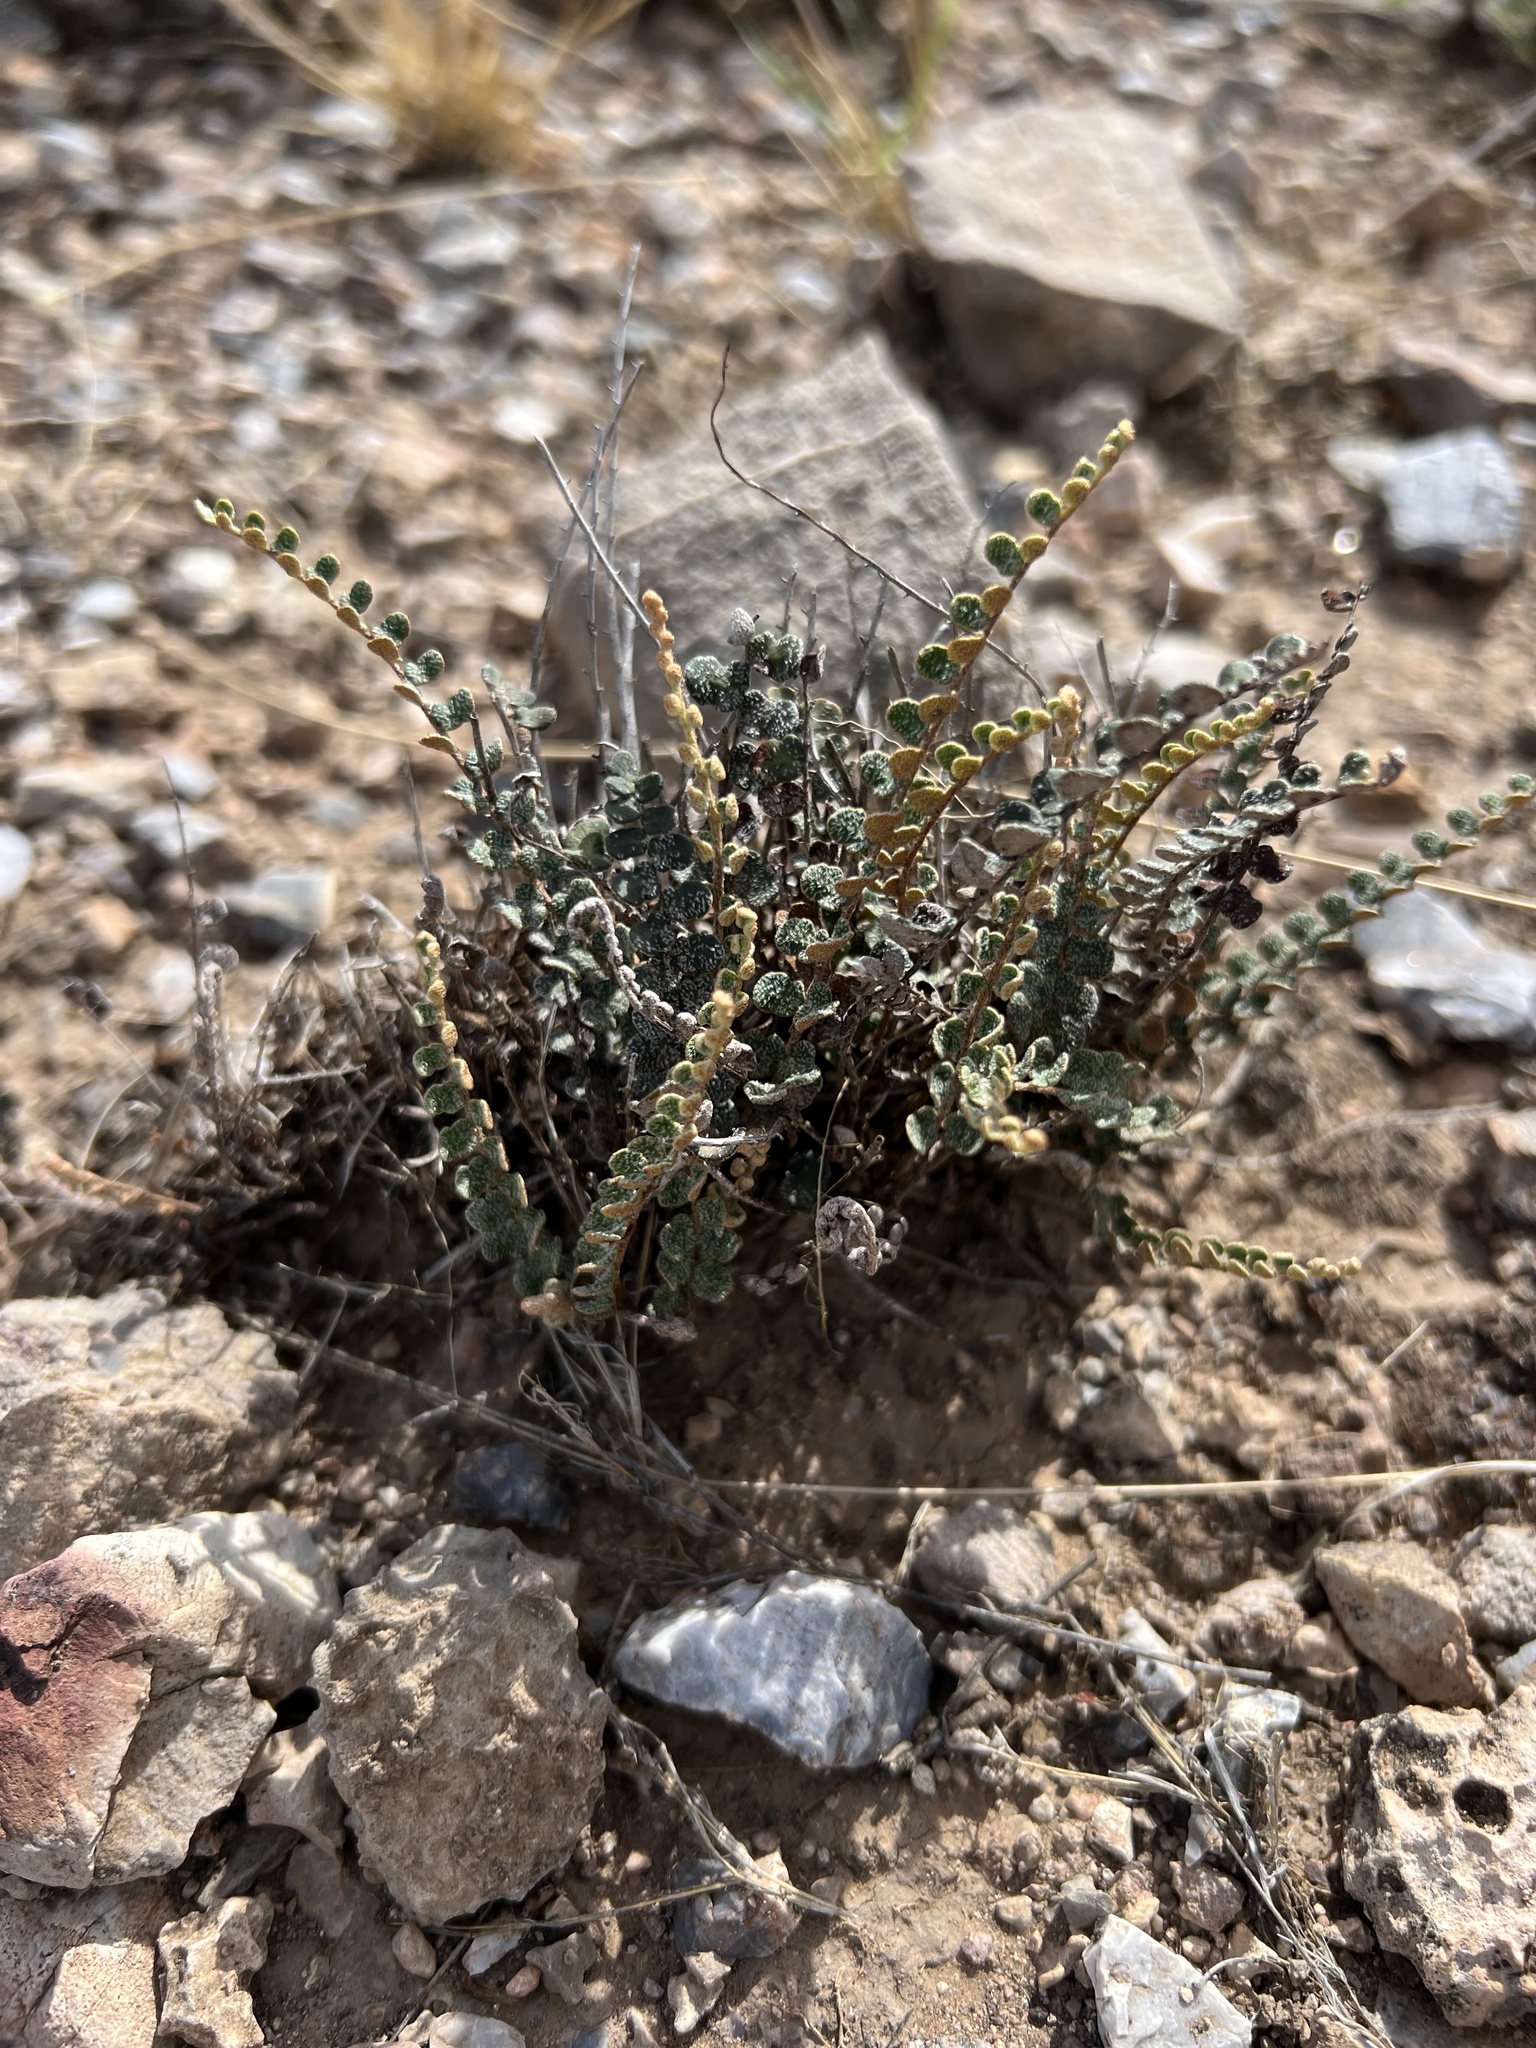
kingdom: Plantae
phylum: Tracheophyta
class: Polypodiopsida
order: Polypodiales
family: Pteridaceae
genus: Astrolepis
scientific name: Astrolepis cochisensis
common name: Scaly cloak fern
